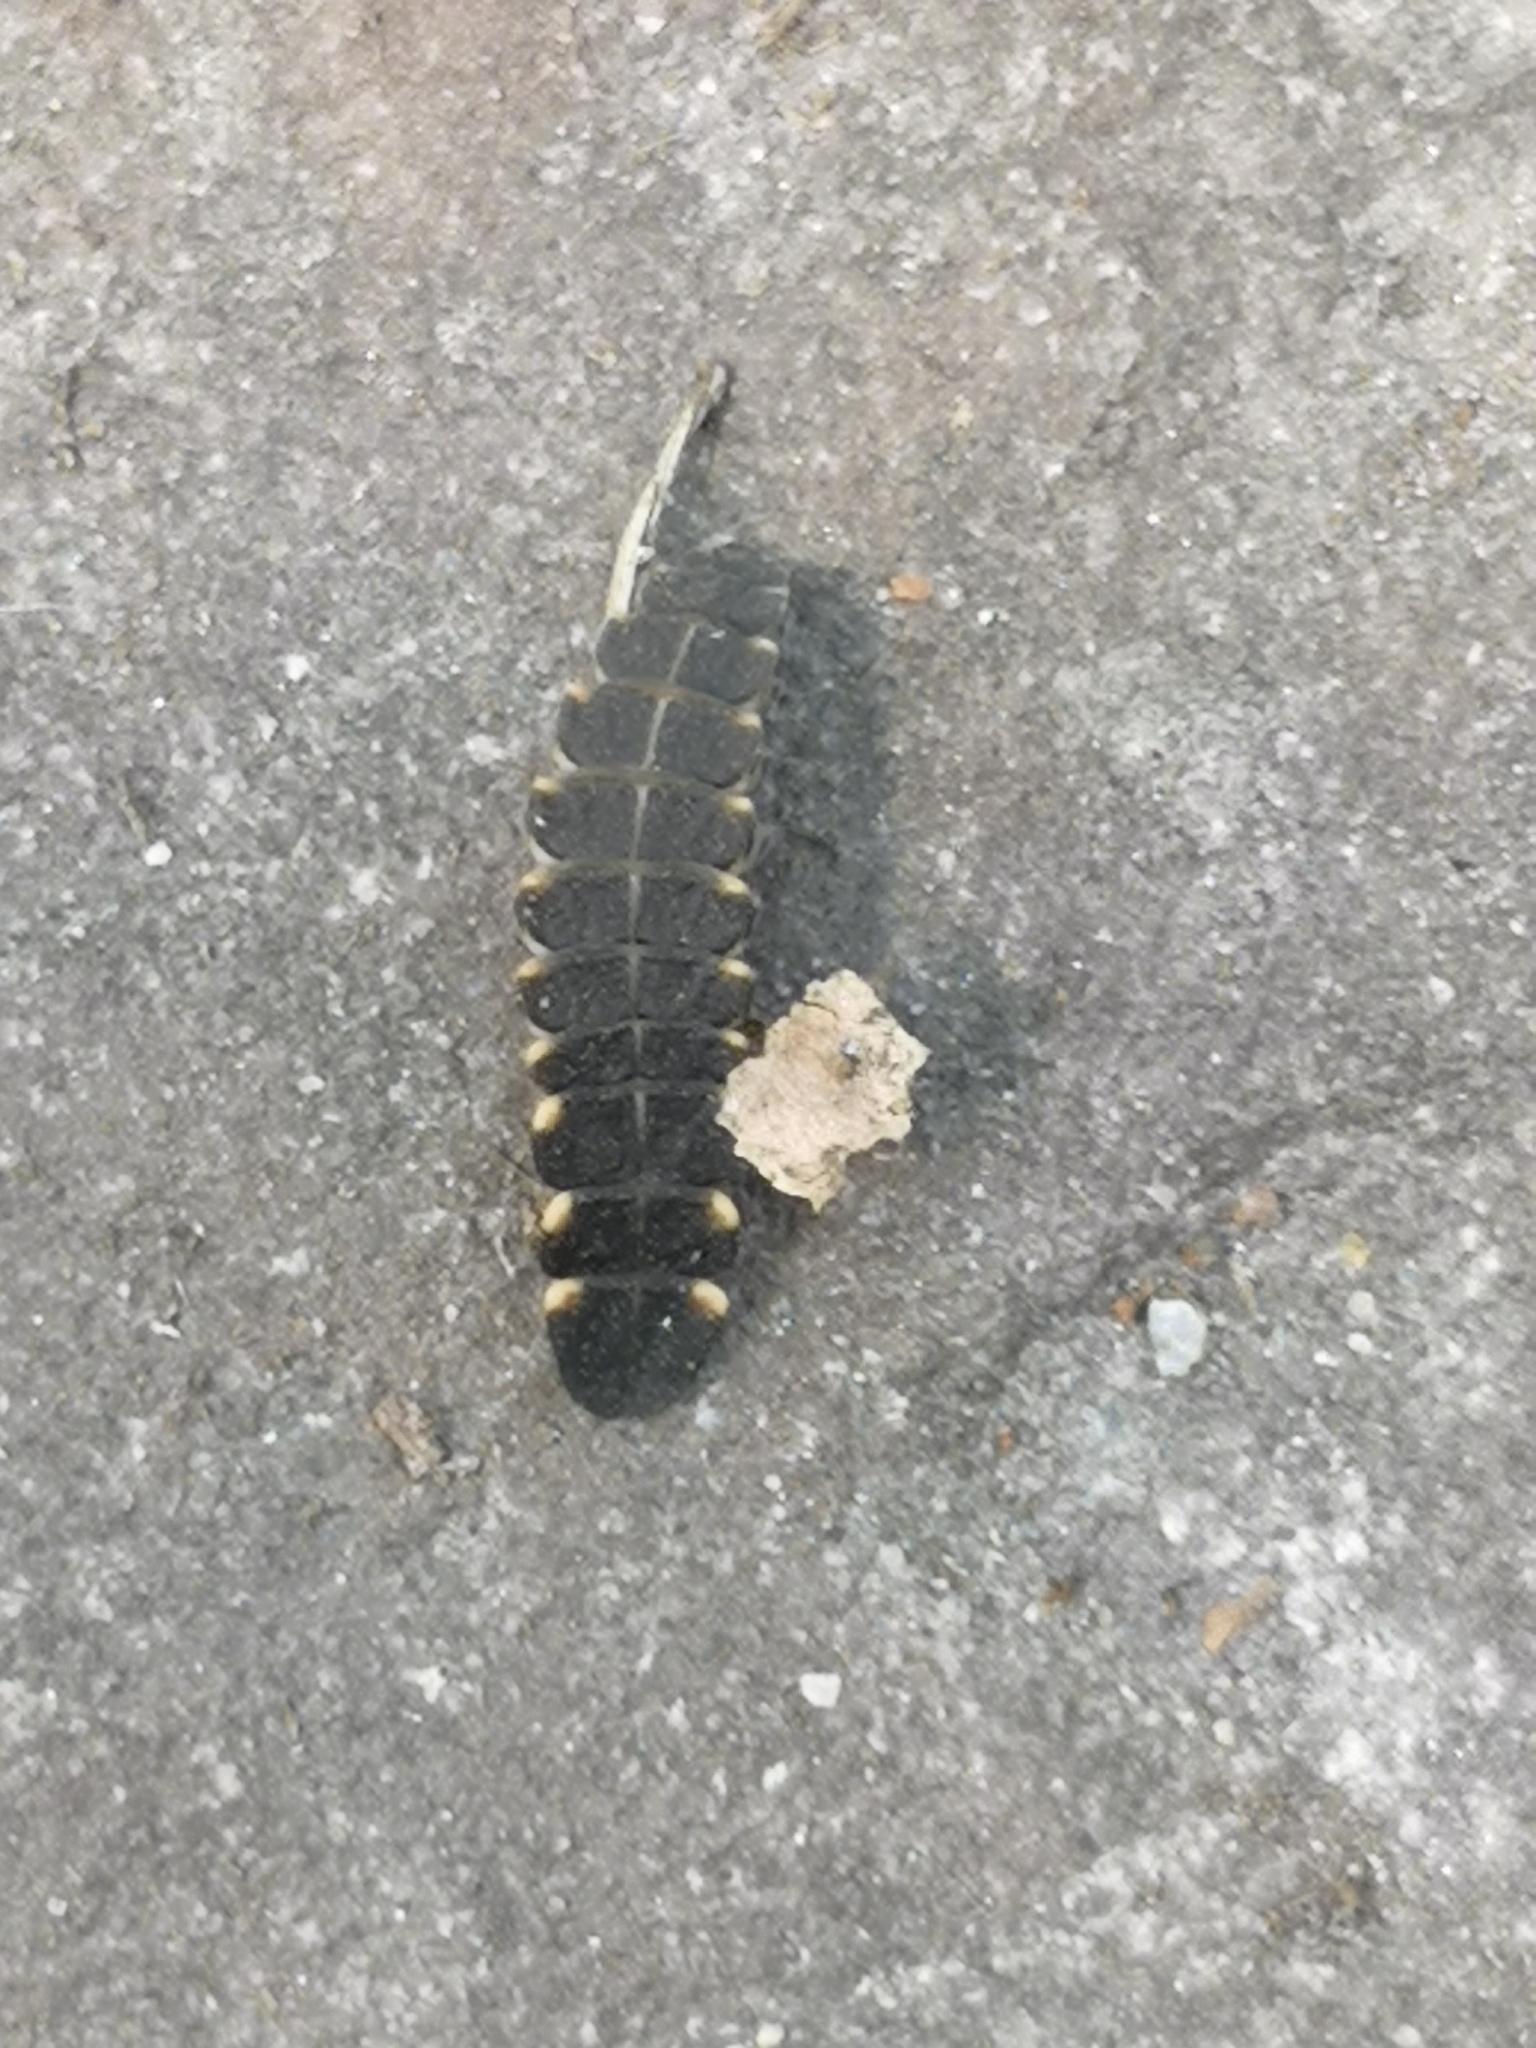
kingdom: Animalia
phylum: Arthropoda
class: Insecta
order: Coleoptera
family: Lampyridae
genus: Lampyris
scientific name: Lampyris noctiluca
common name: Glow-worm
